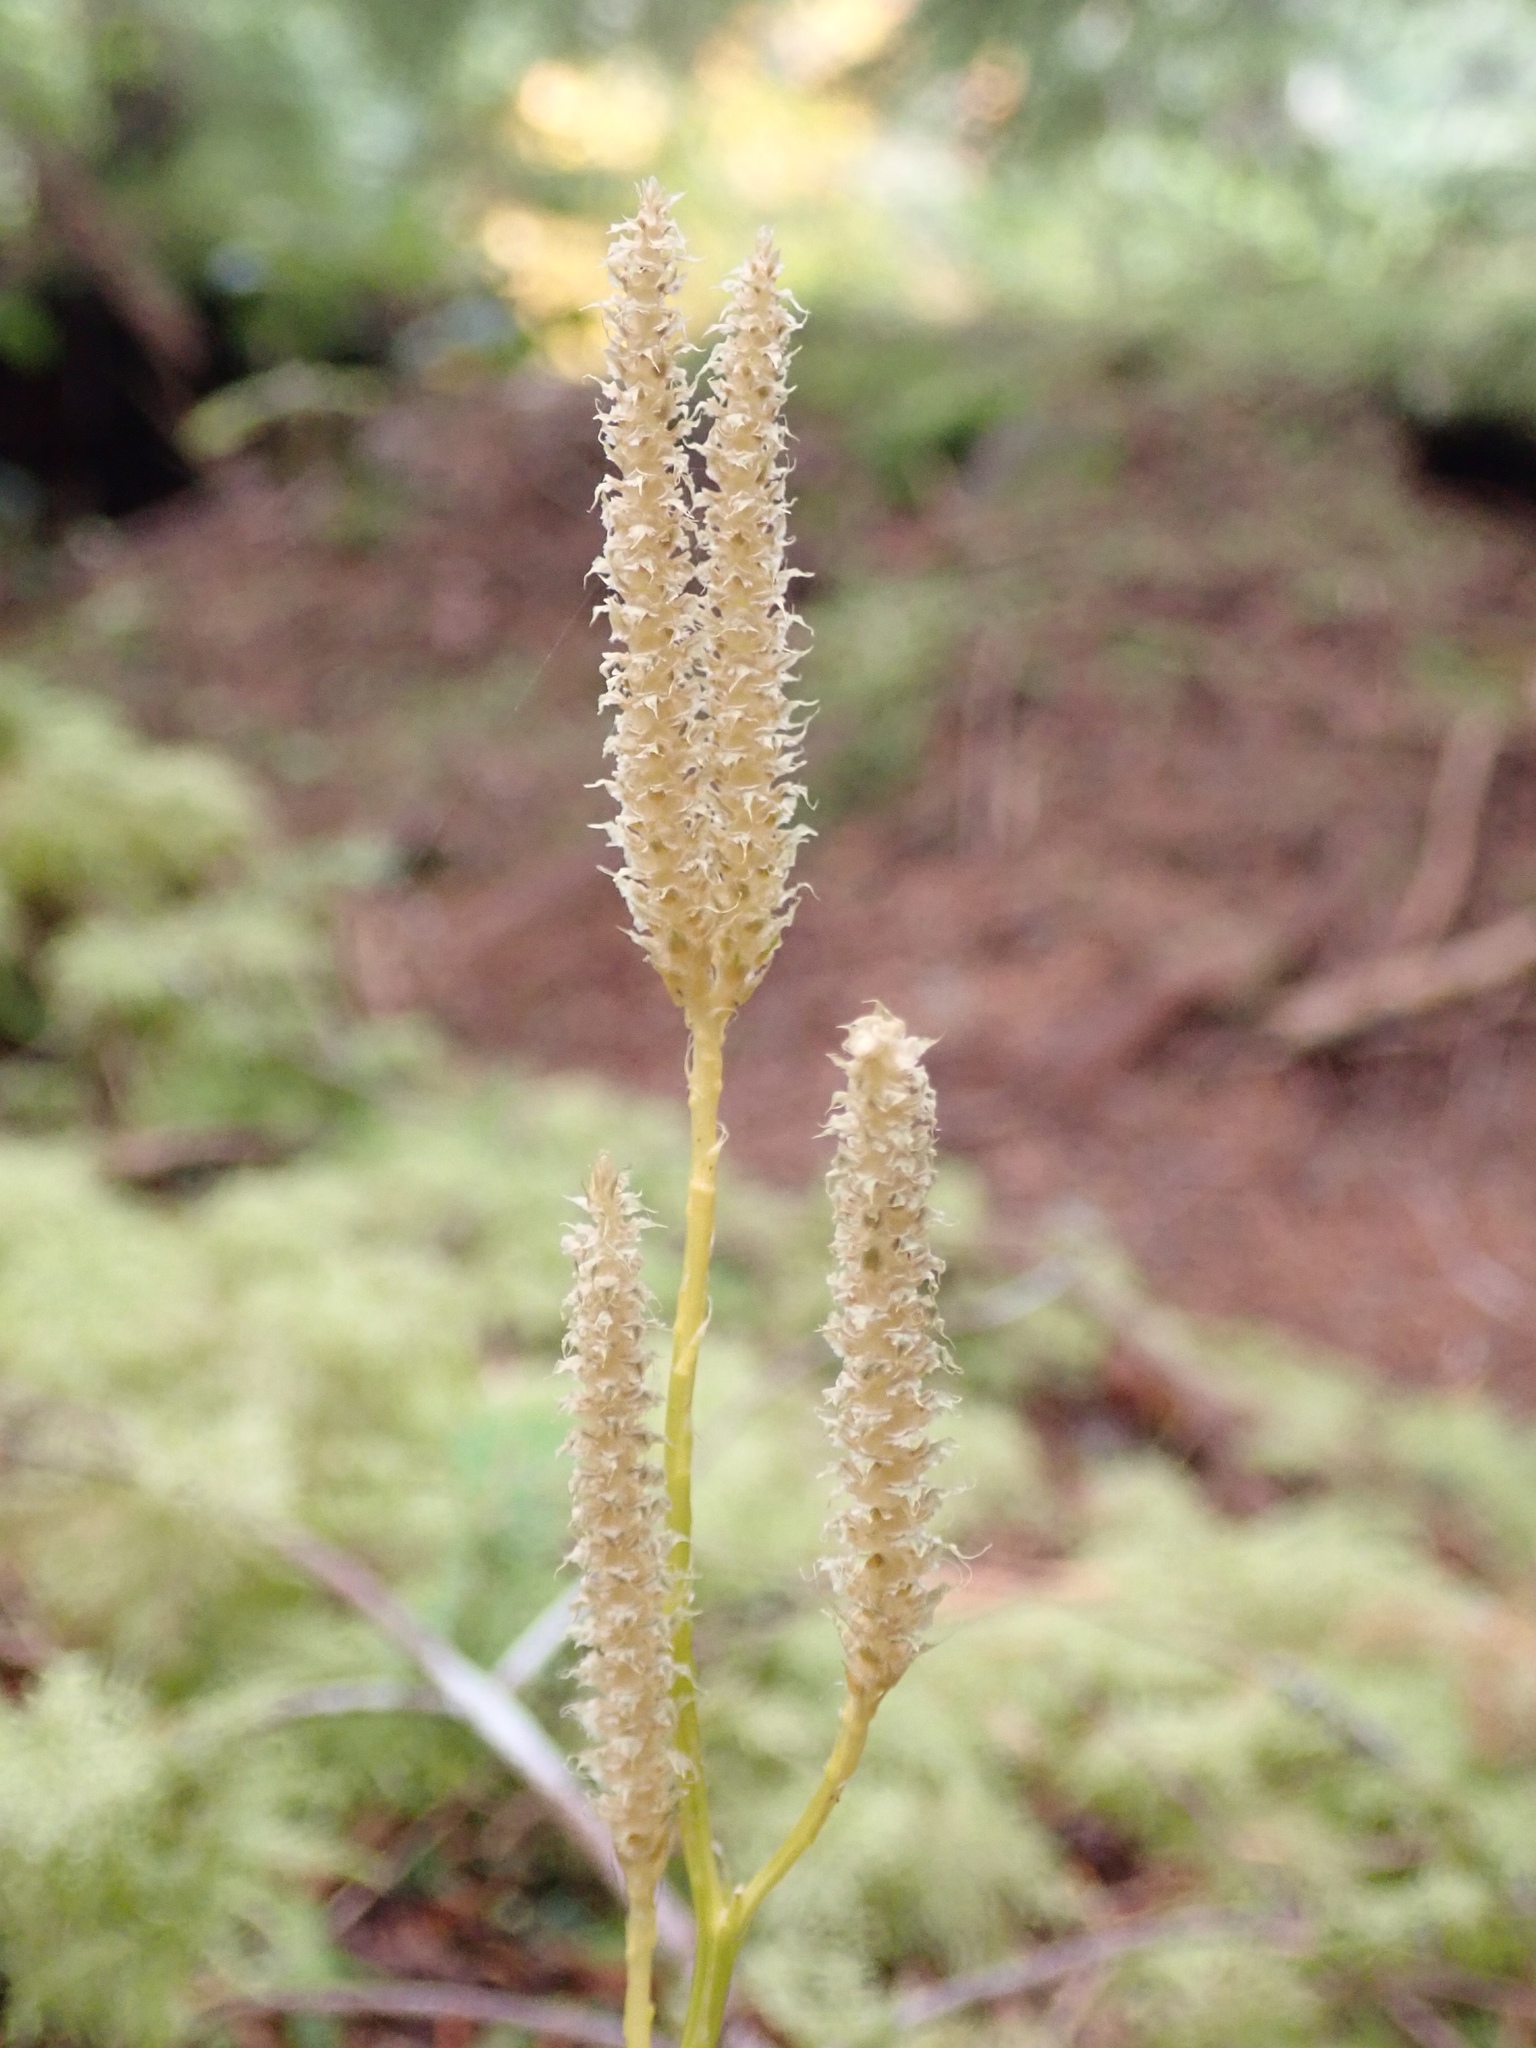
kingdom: Plantae
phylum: Tracheophyta
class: Lycopodiopsida
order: Lycopodiales
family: Lycopodiaceae
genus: Lycopodium
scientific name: Lycopodium clavatum
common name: Stag's-horn clubmoss
